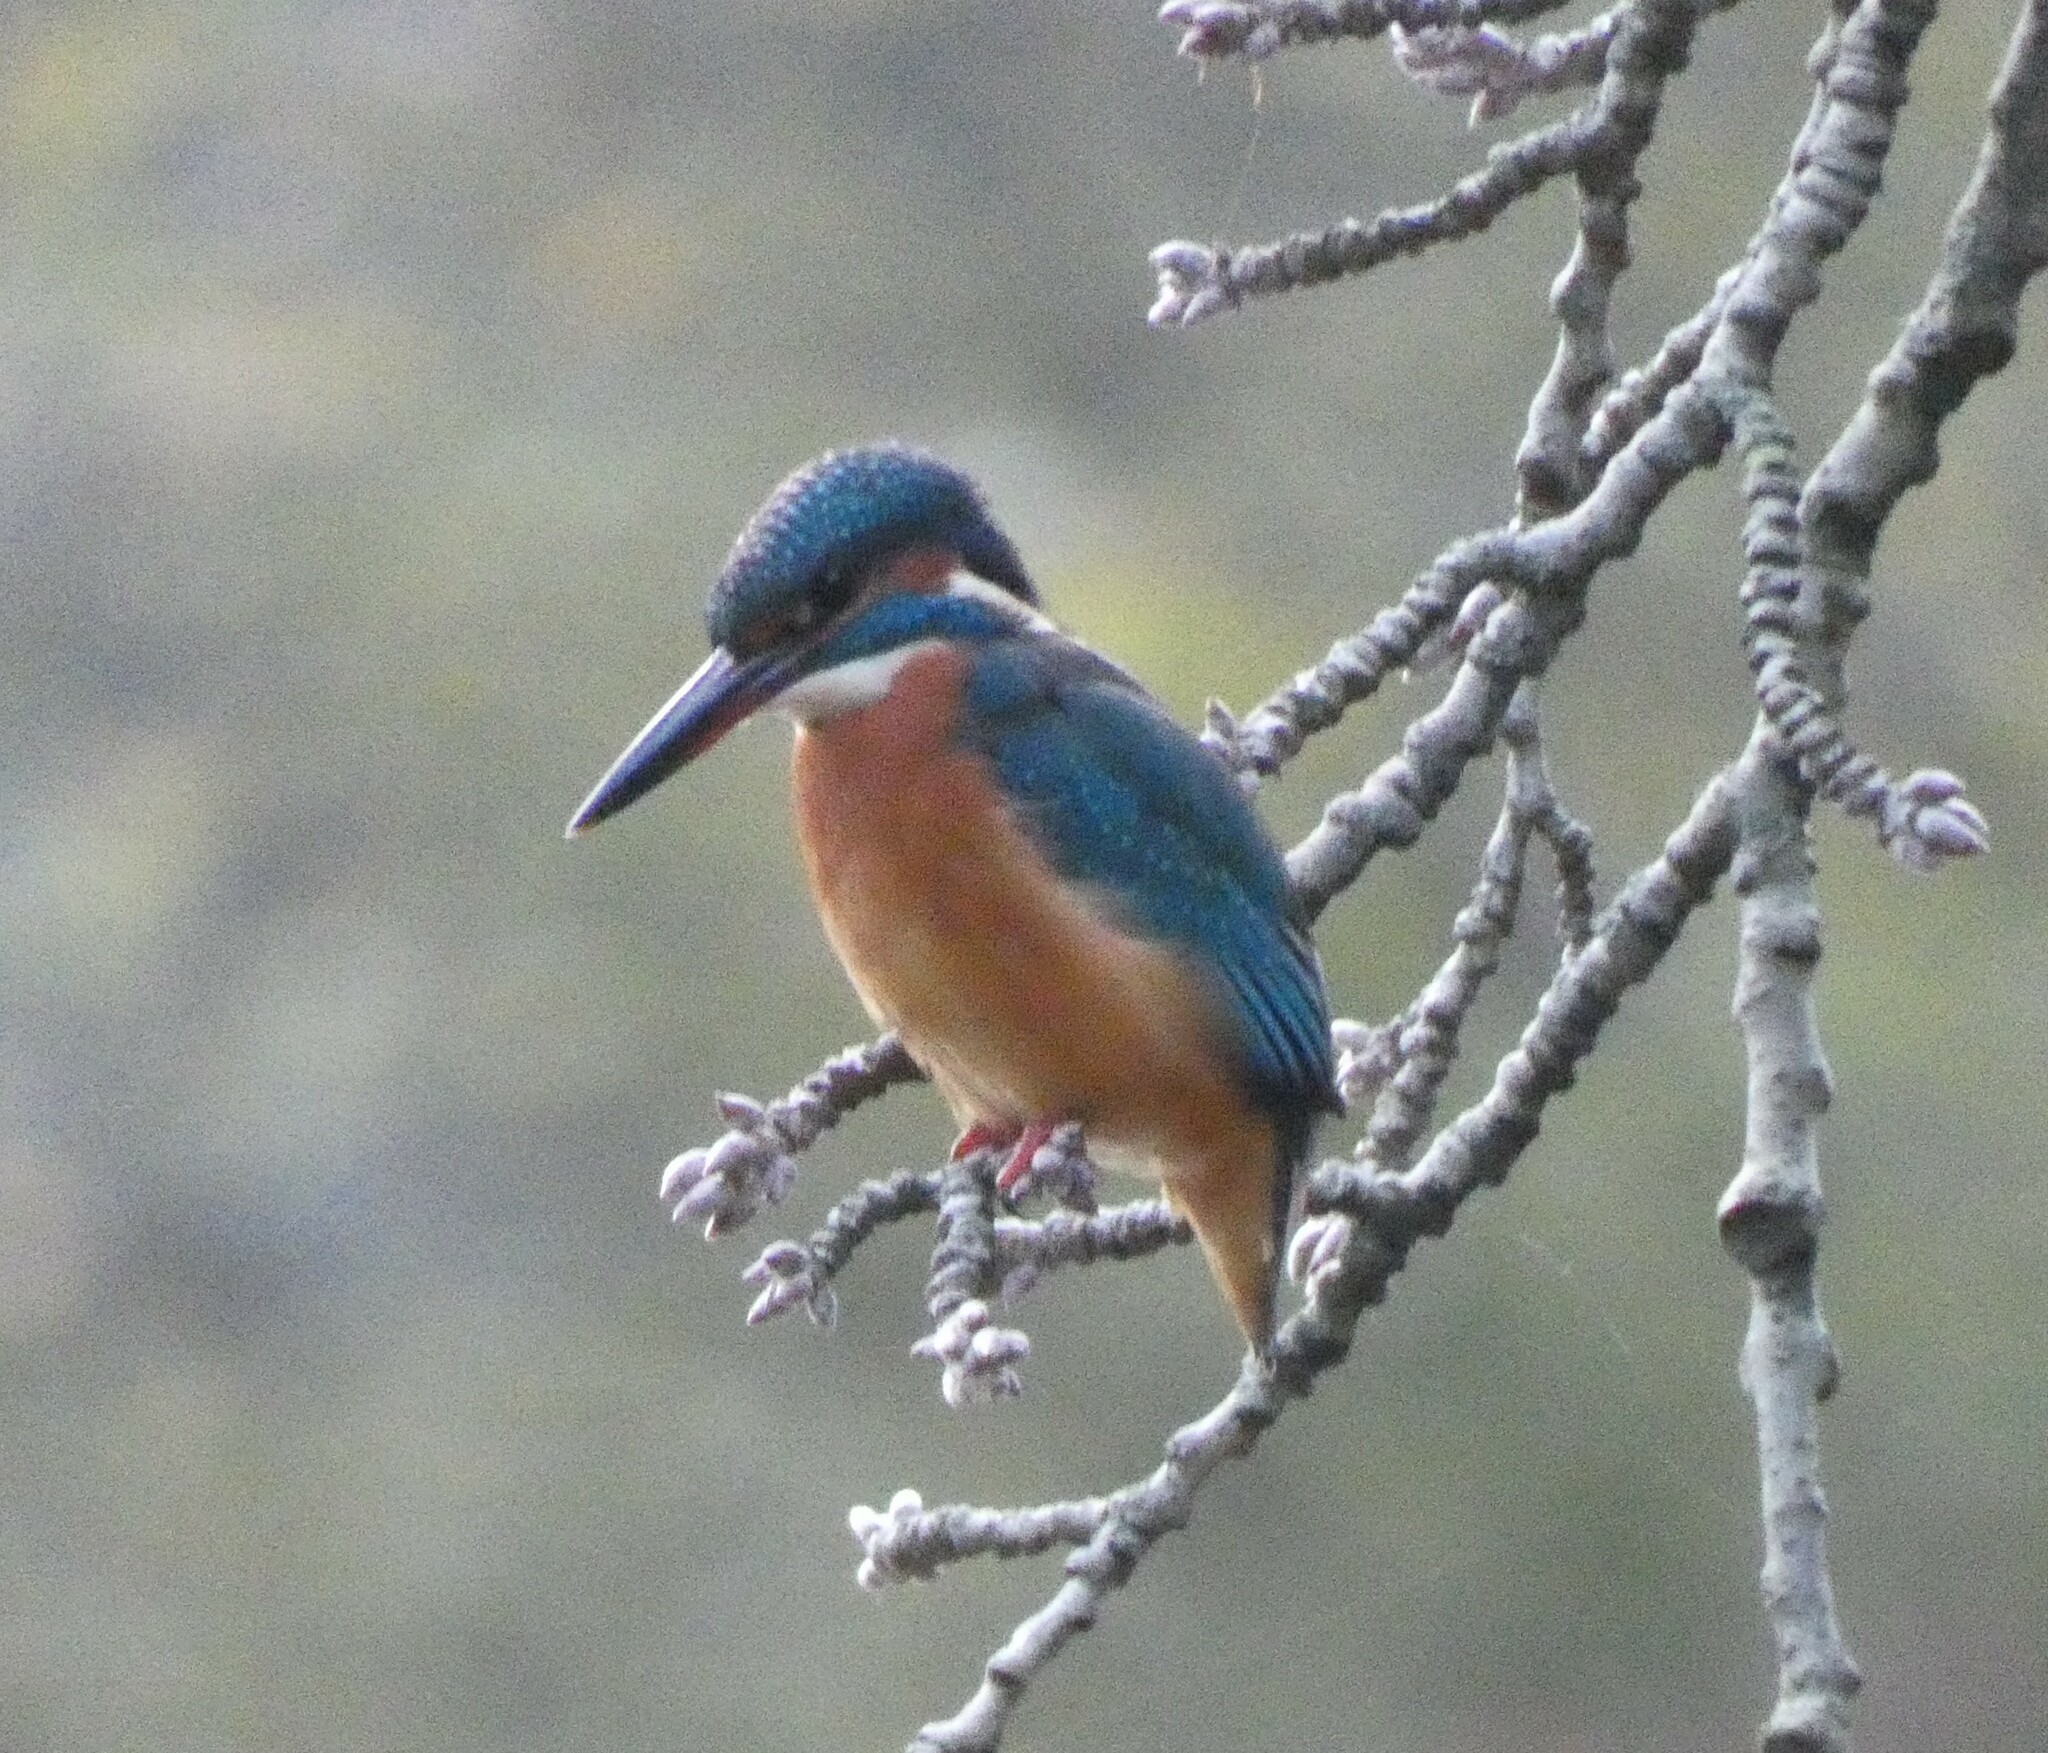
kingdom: Animalia
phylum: Chordata
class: Aves
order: Coraciiformes
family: Alcedinidae
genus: Alcedo
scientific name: Alcedo atthis
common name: Common kingfisher
